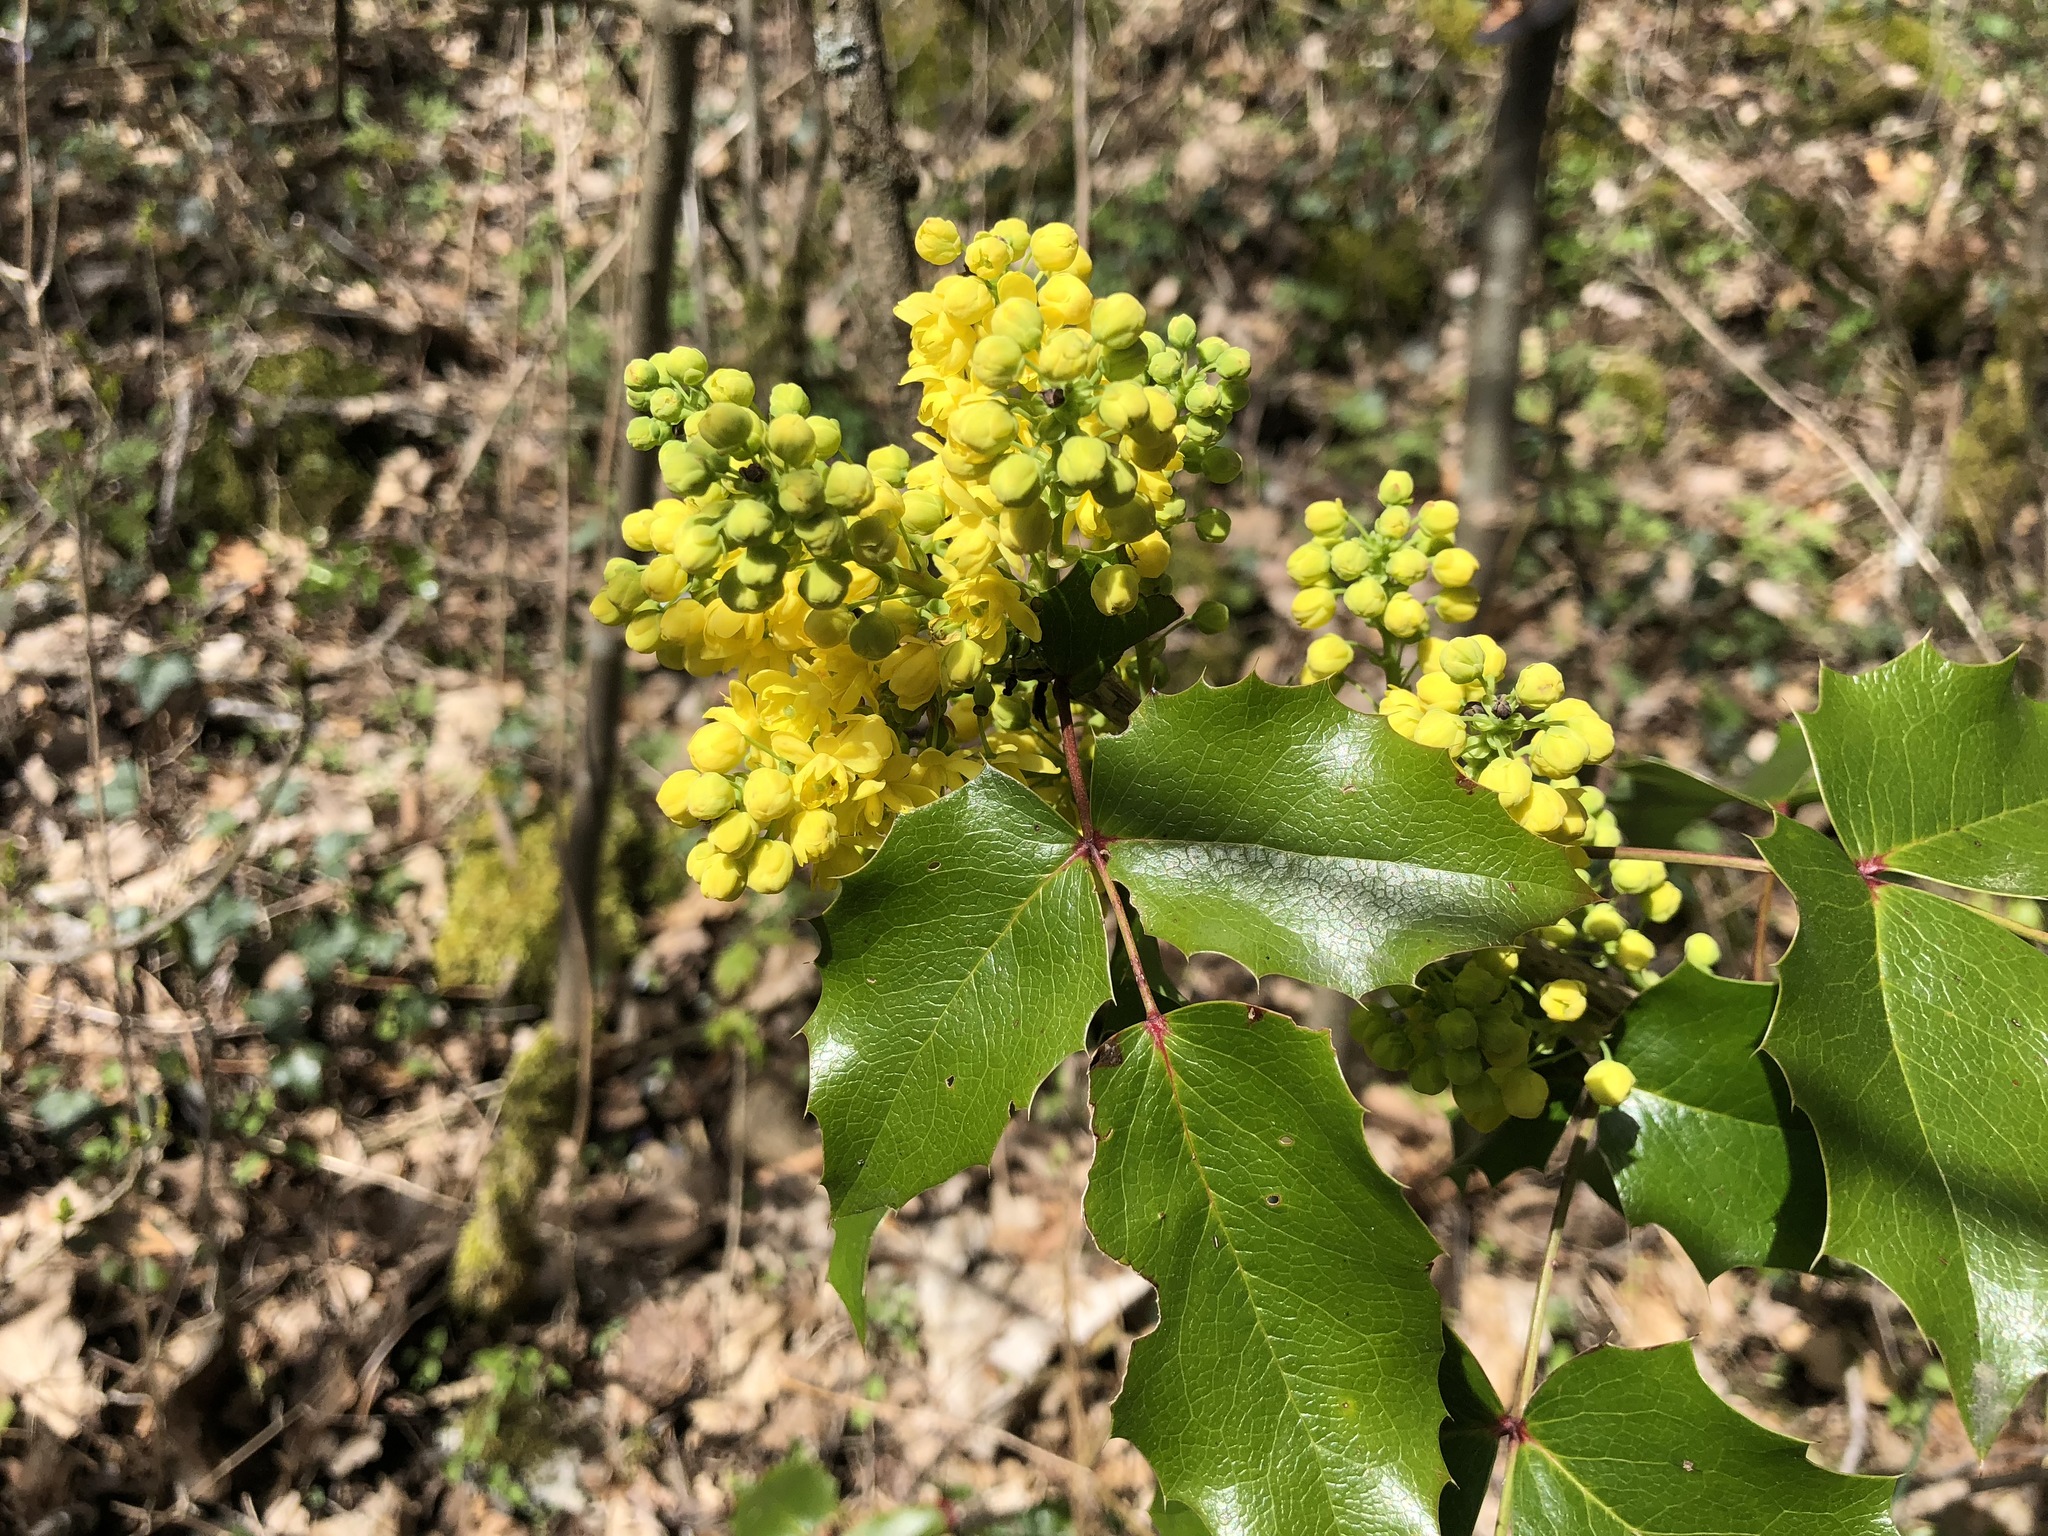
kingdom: Plantae
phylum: Tracheophyta
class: Magnoliopsida
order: Ranunculales
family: Berberidaceae
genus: Mahonia
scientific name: Mahonia aquifolium
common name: Oregon-grape
